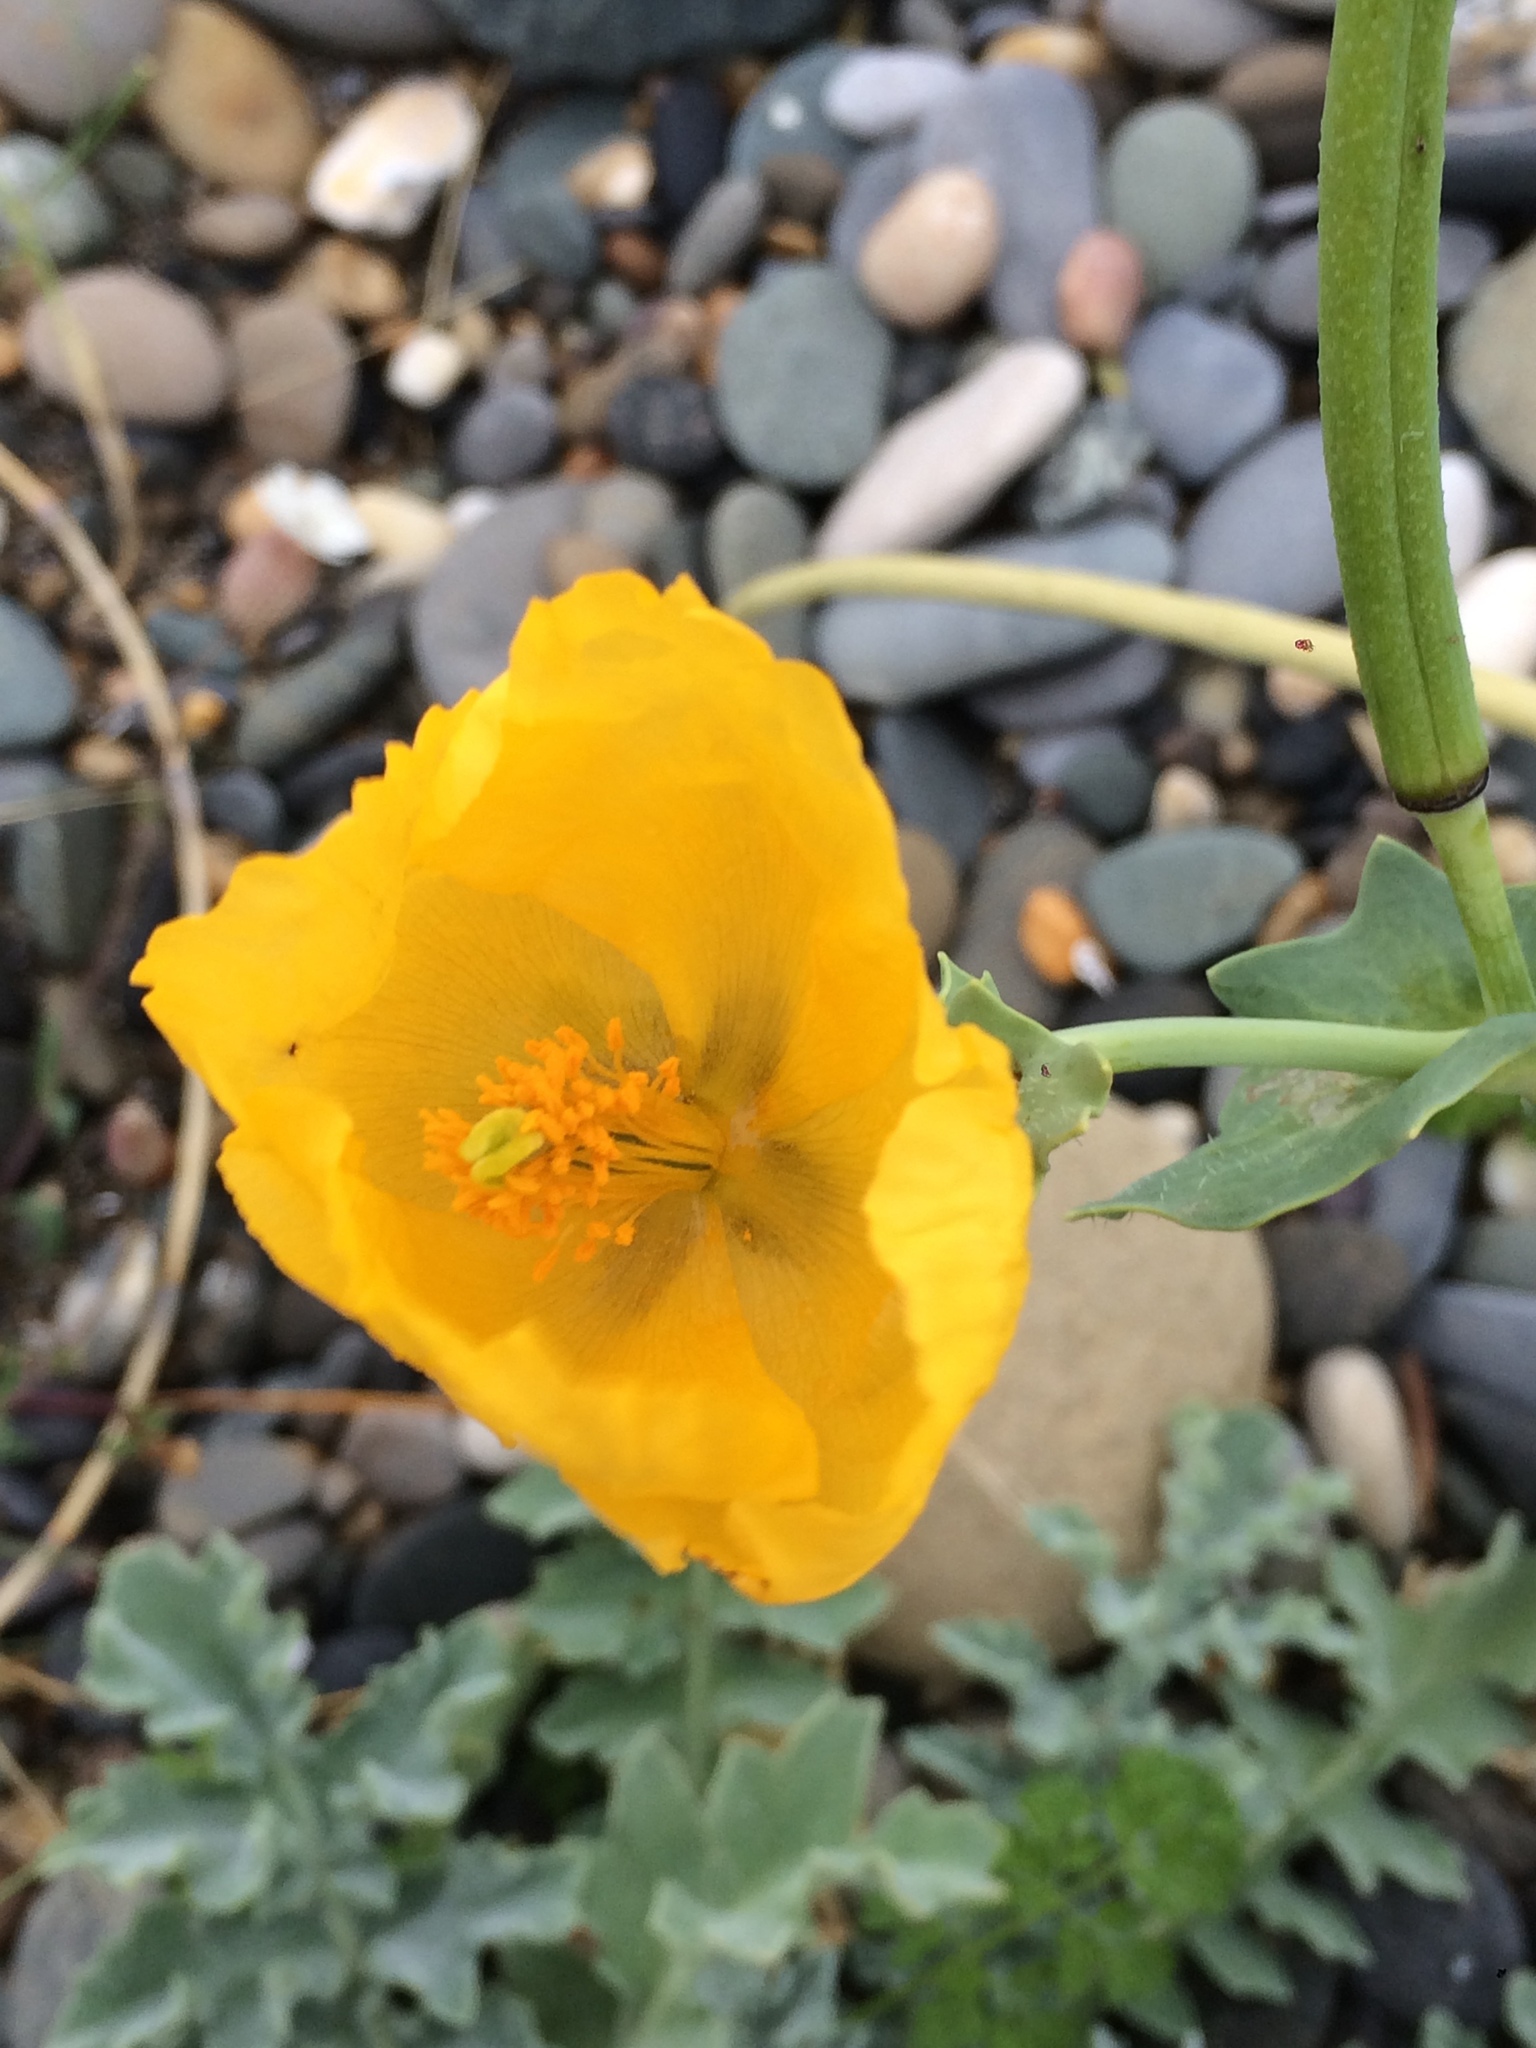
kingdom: Plantae
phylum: Tracheophyta
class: Magnoliopsida
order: Ranunculales
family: Papaveraceae
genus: Glaucium
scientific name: Glaucium flavum
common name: Yellow horned-poppy
